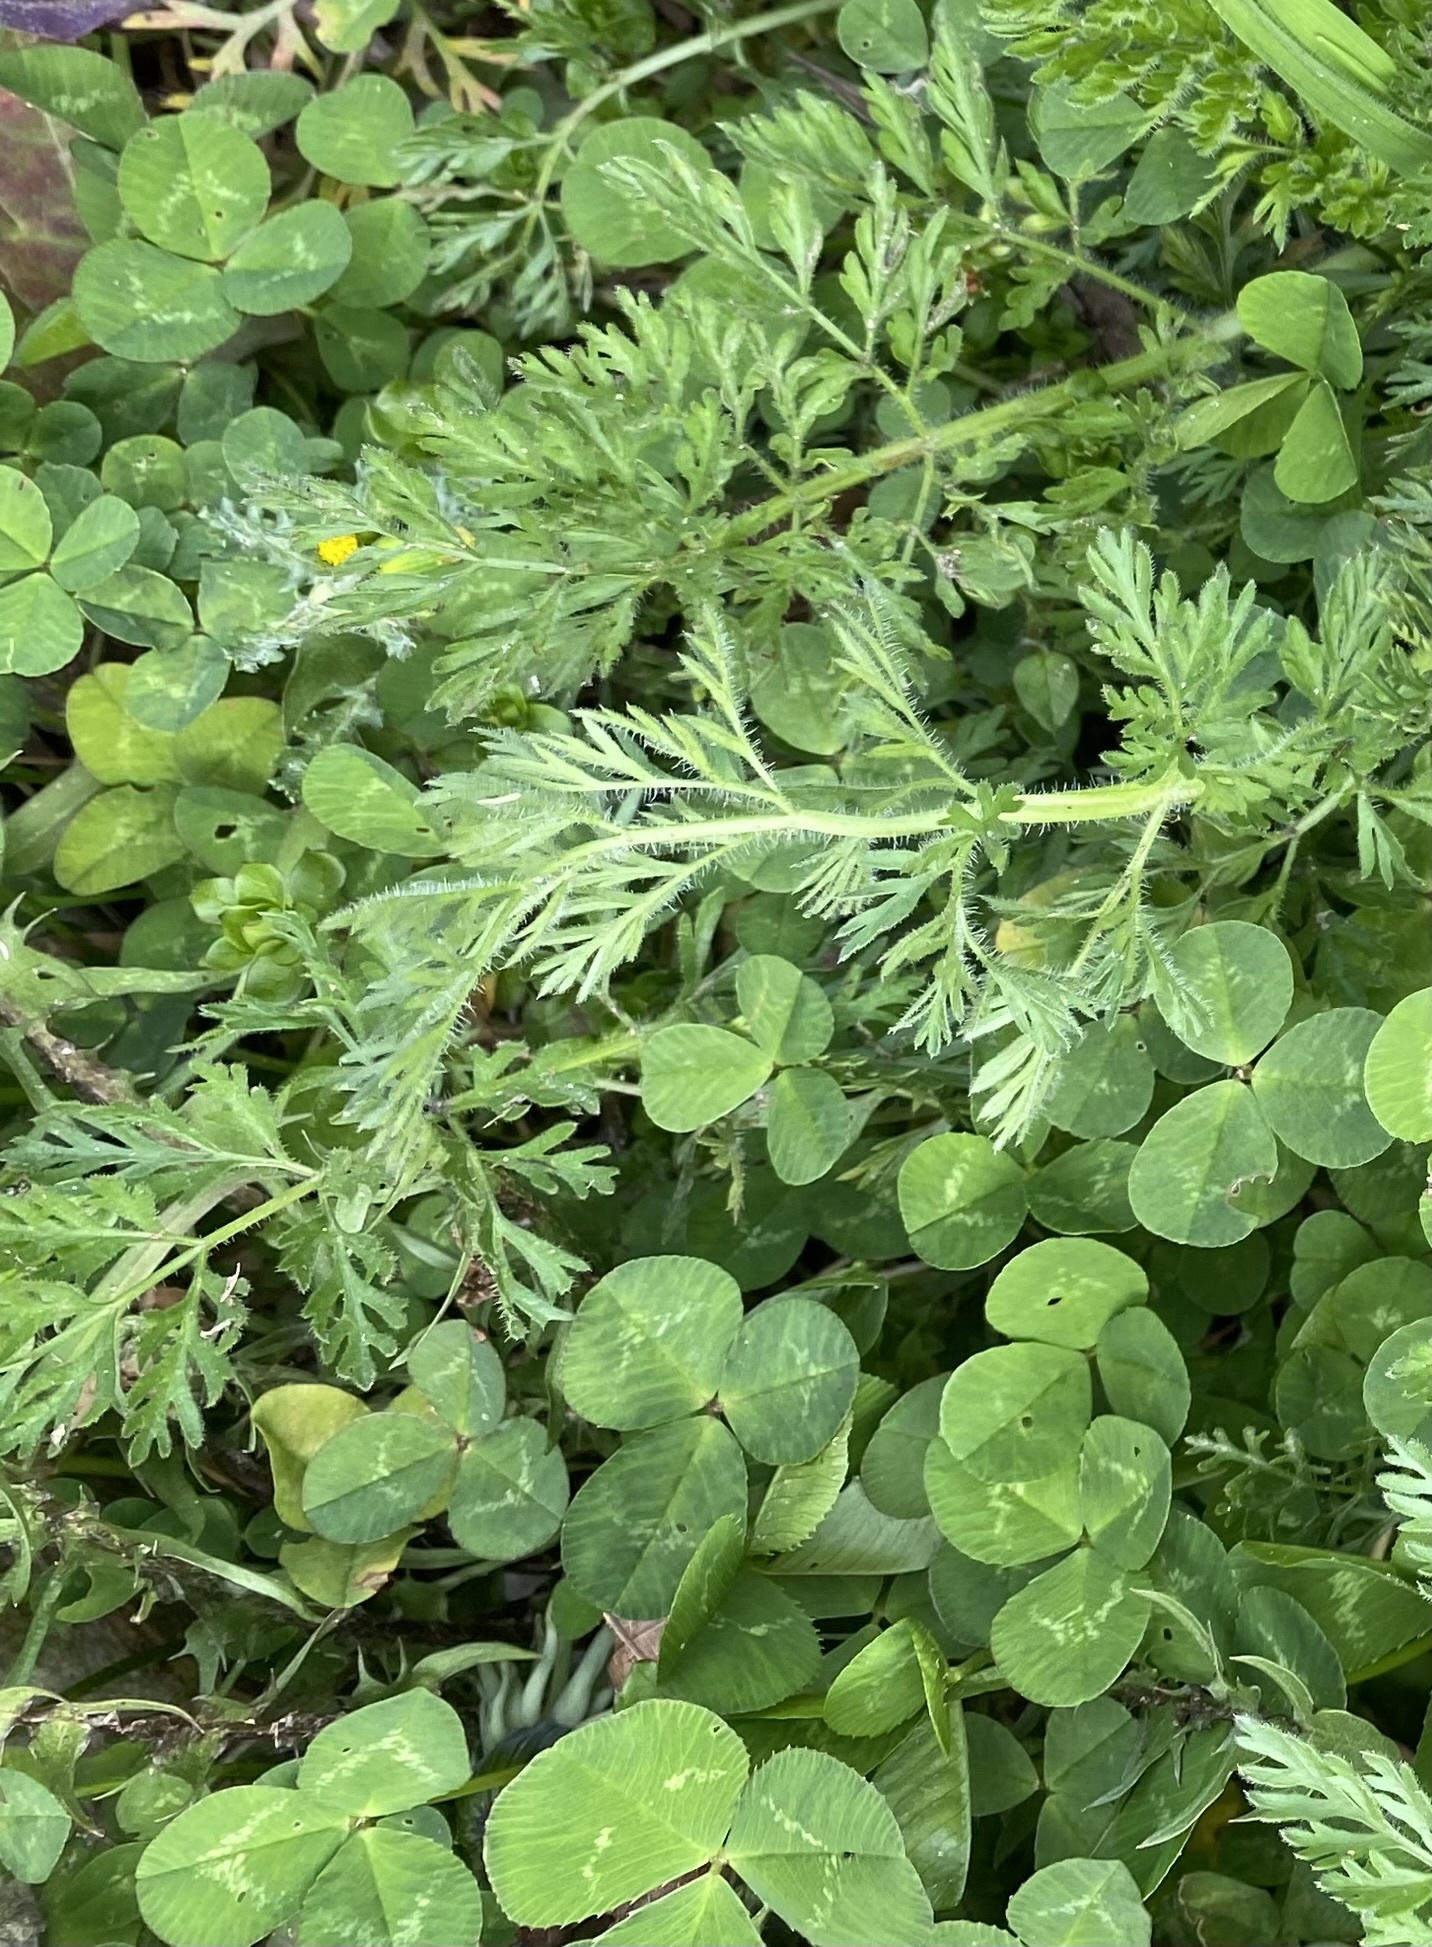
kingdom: Plantae
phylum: Tracheophyta
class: Magnoliopsida
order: Fabales
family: Fabaceae
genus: Trifolium
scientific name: Trifolium repens
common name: White clover
